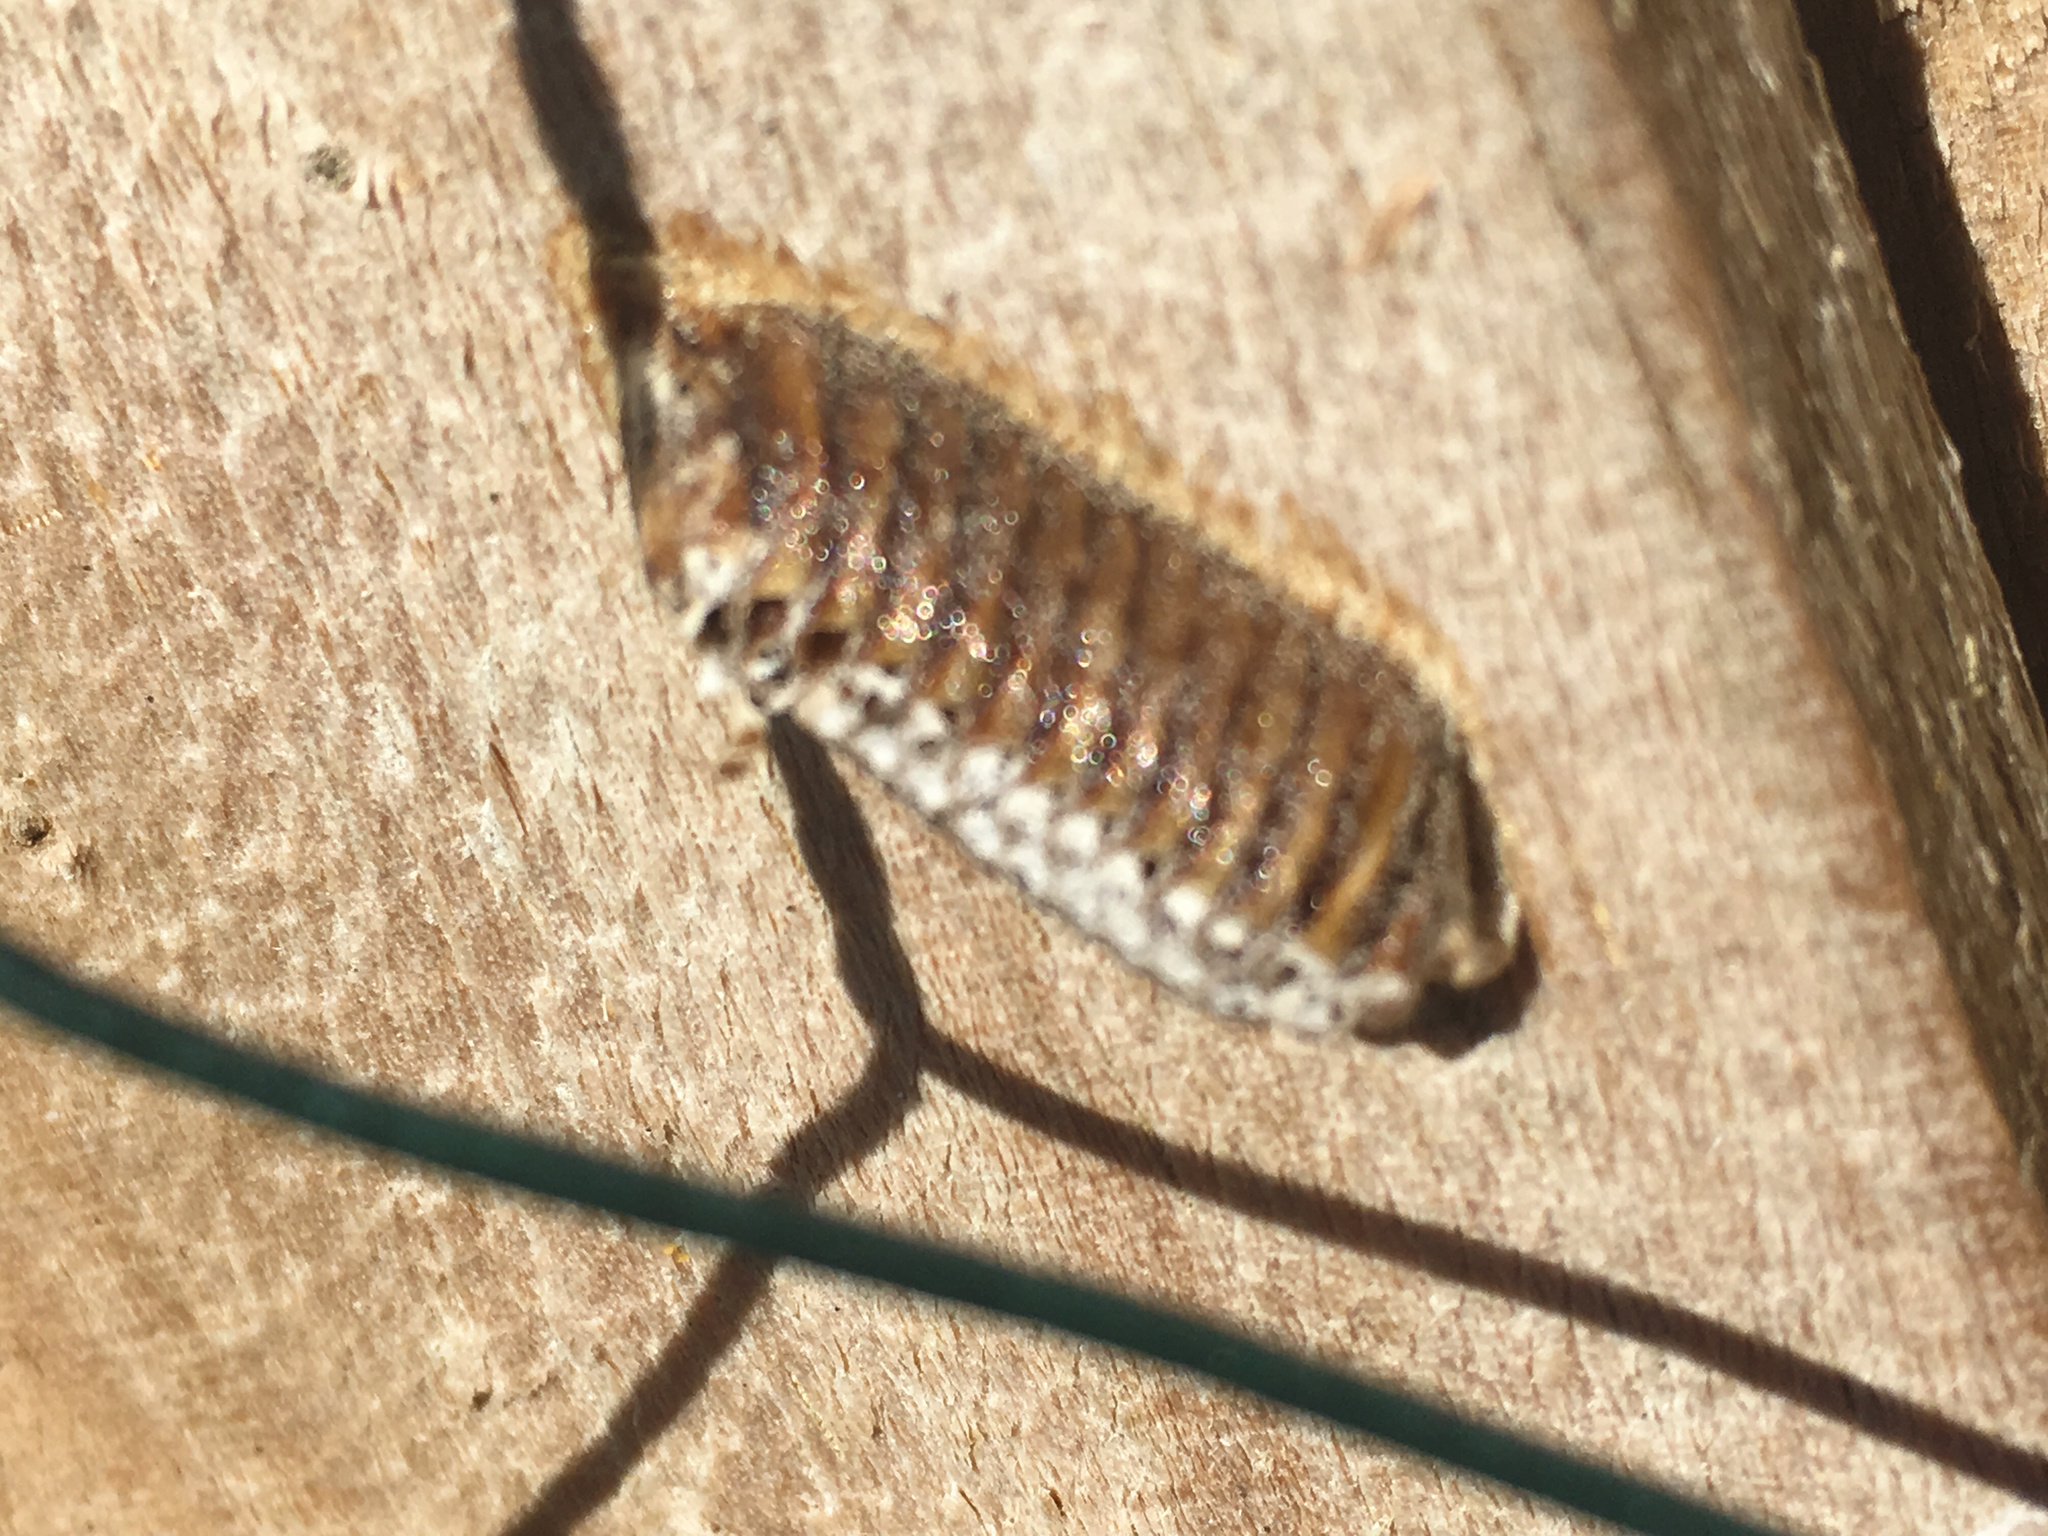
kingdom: Animalia
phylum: Arthropoda
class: Insecta
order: Mantodea
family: Mantidae
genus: Orthodera
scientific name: Orthodera novaezealandiae
